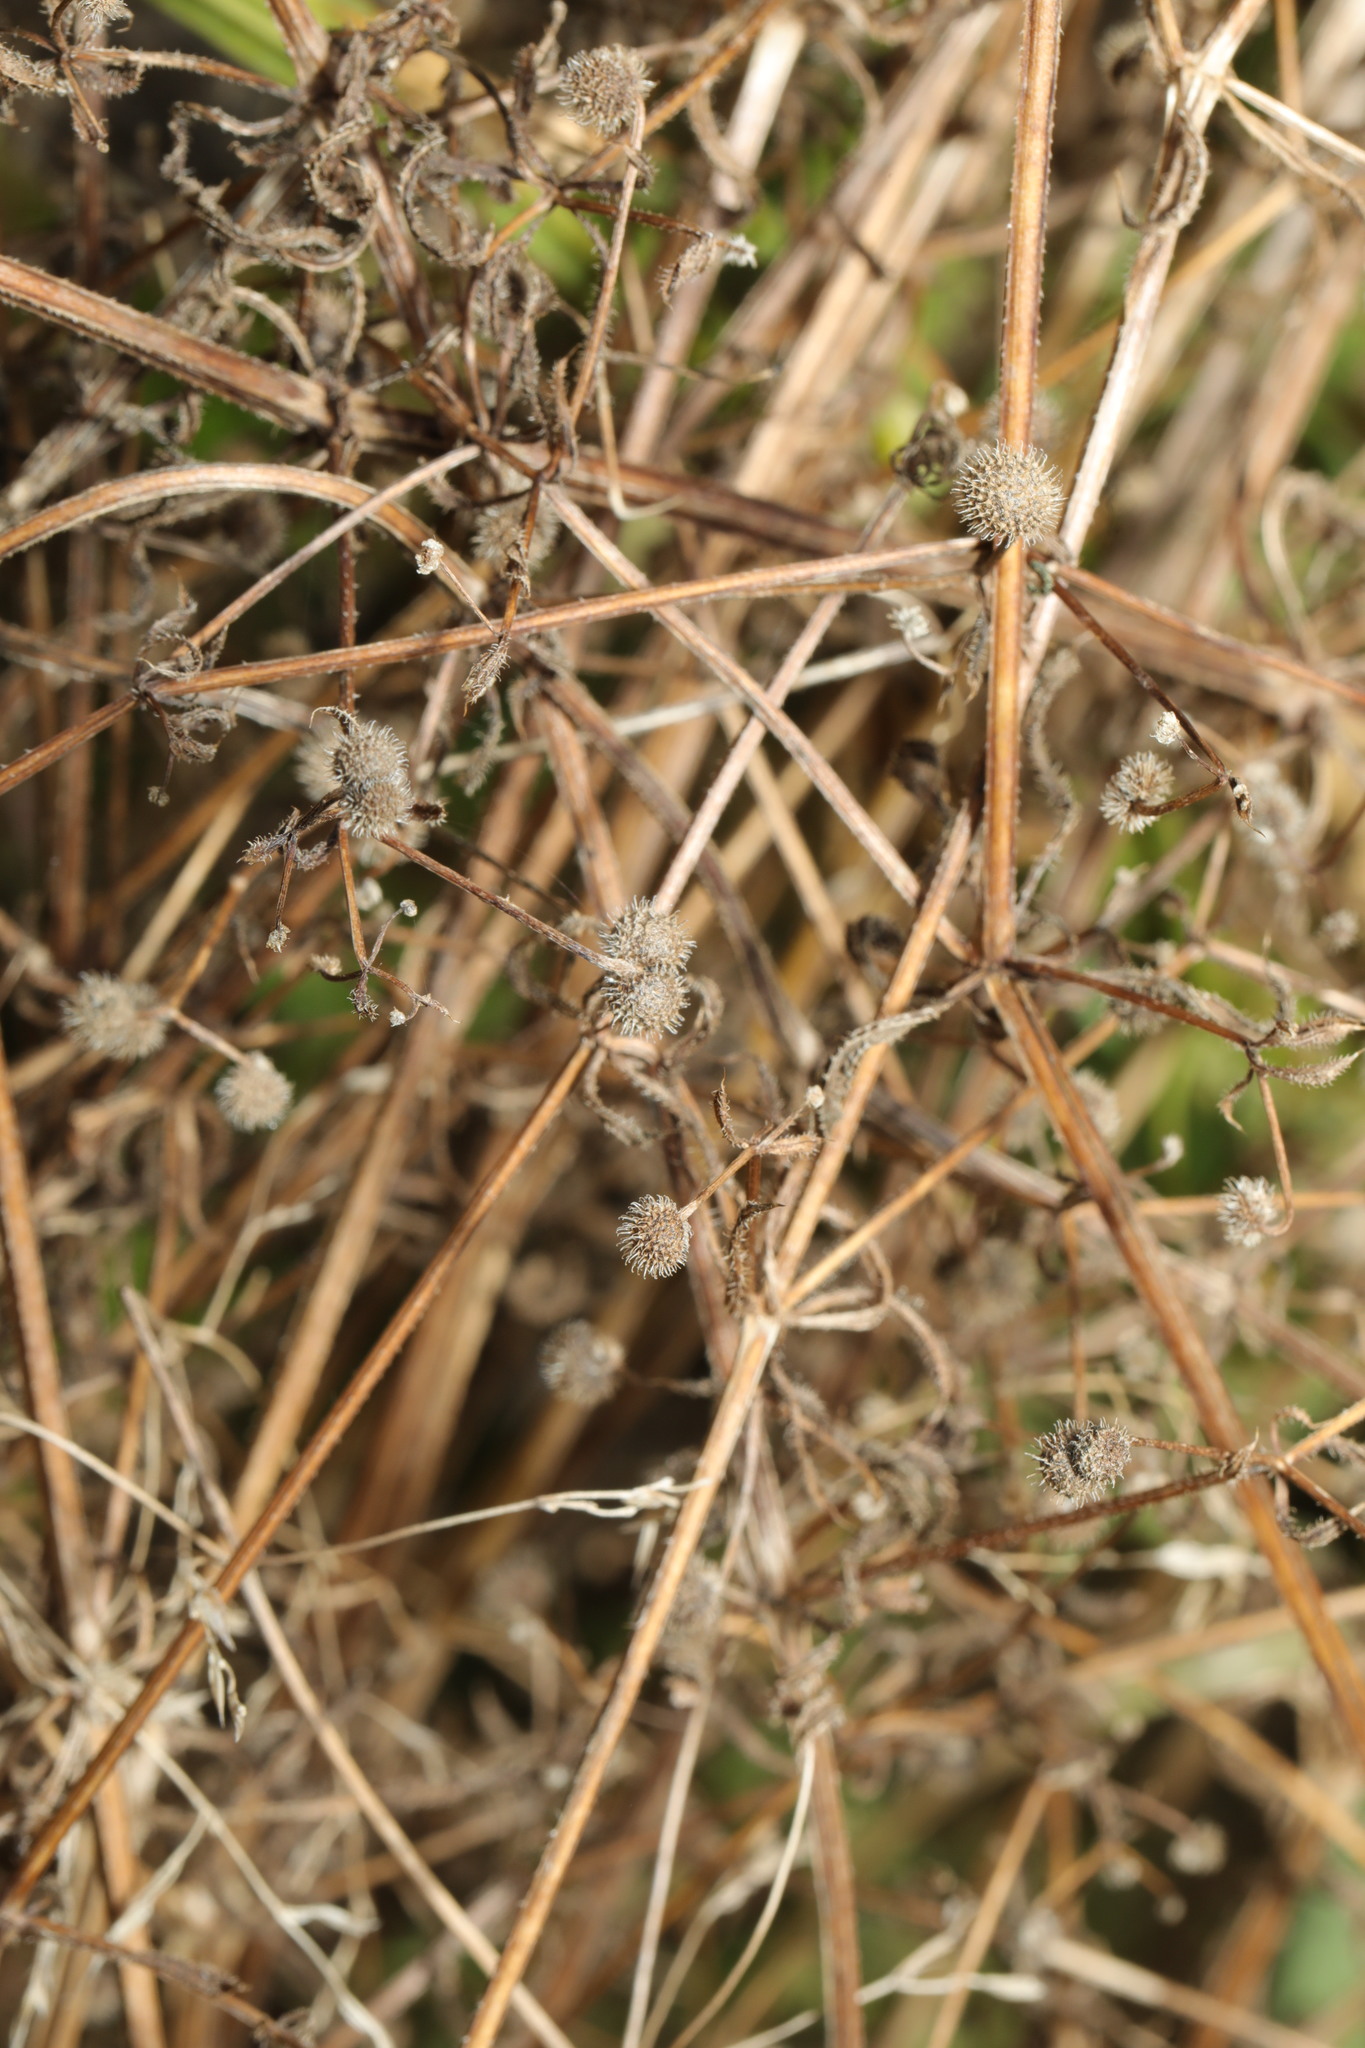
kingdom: Plantae
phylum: Tracheophyta
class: Magnoliopsida
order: Gentianales
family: Rubiaceae
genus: Galium
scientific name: Galium aparine
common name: Cleavers
